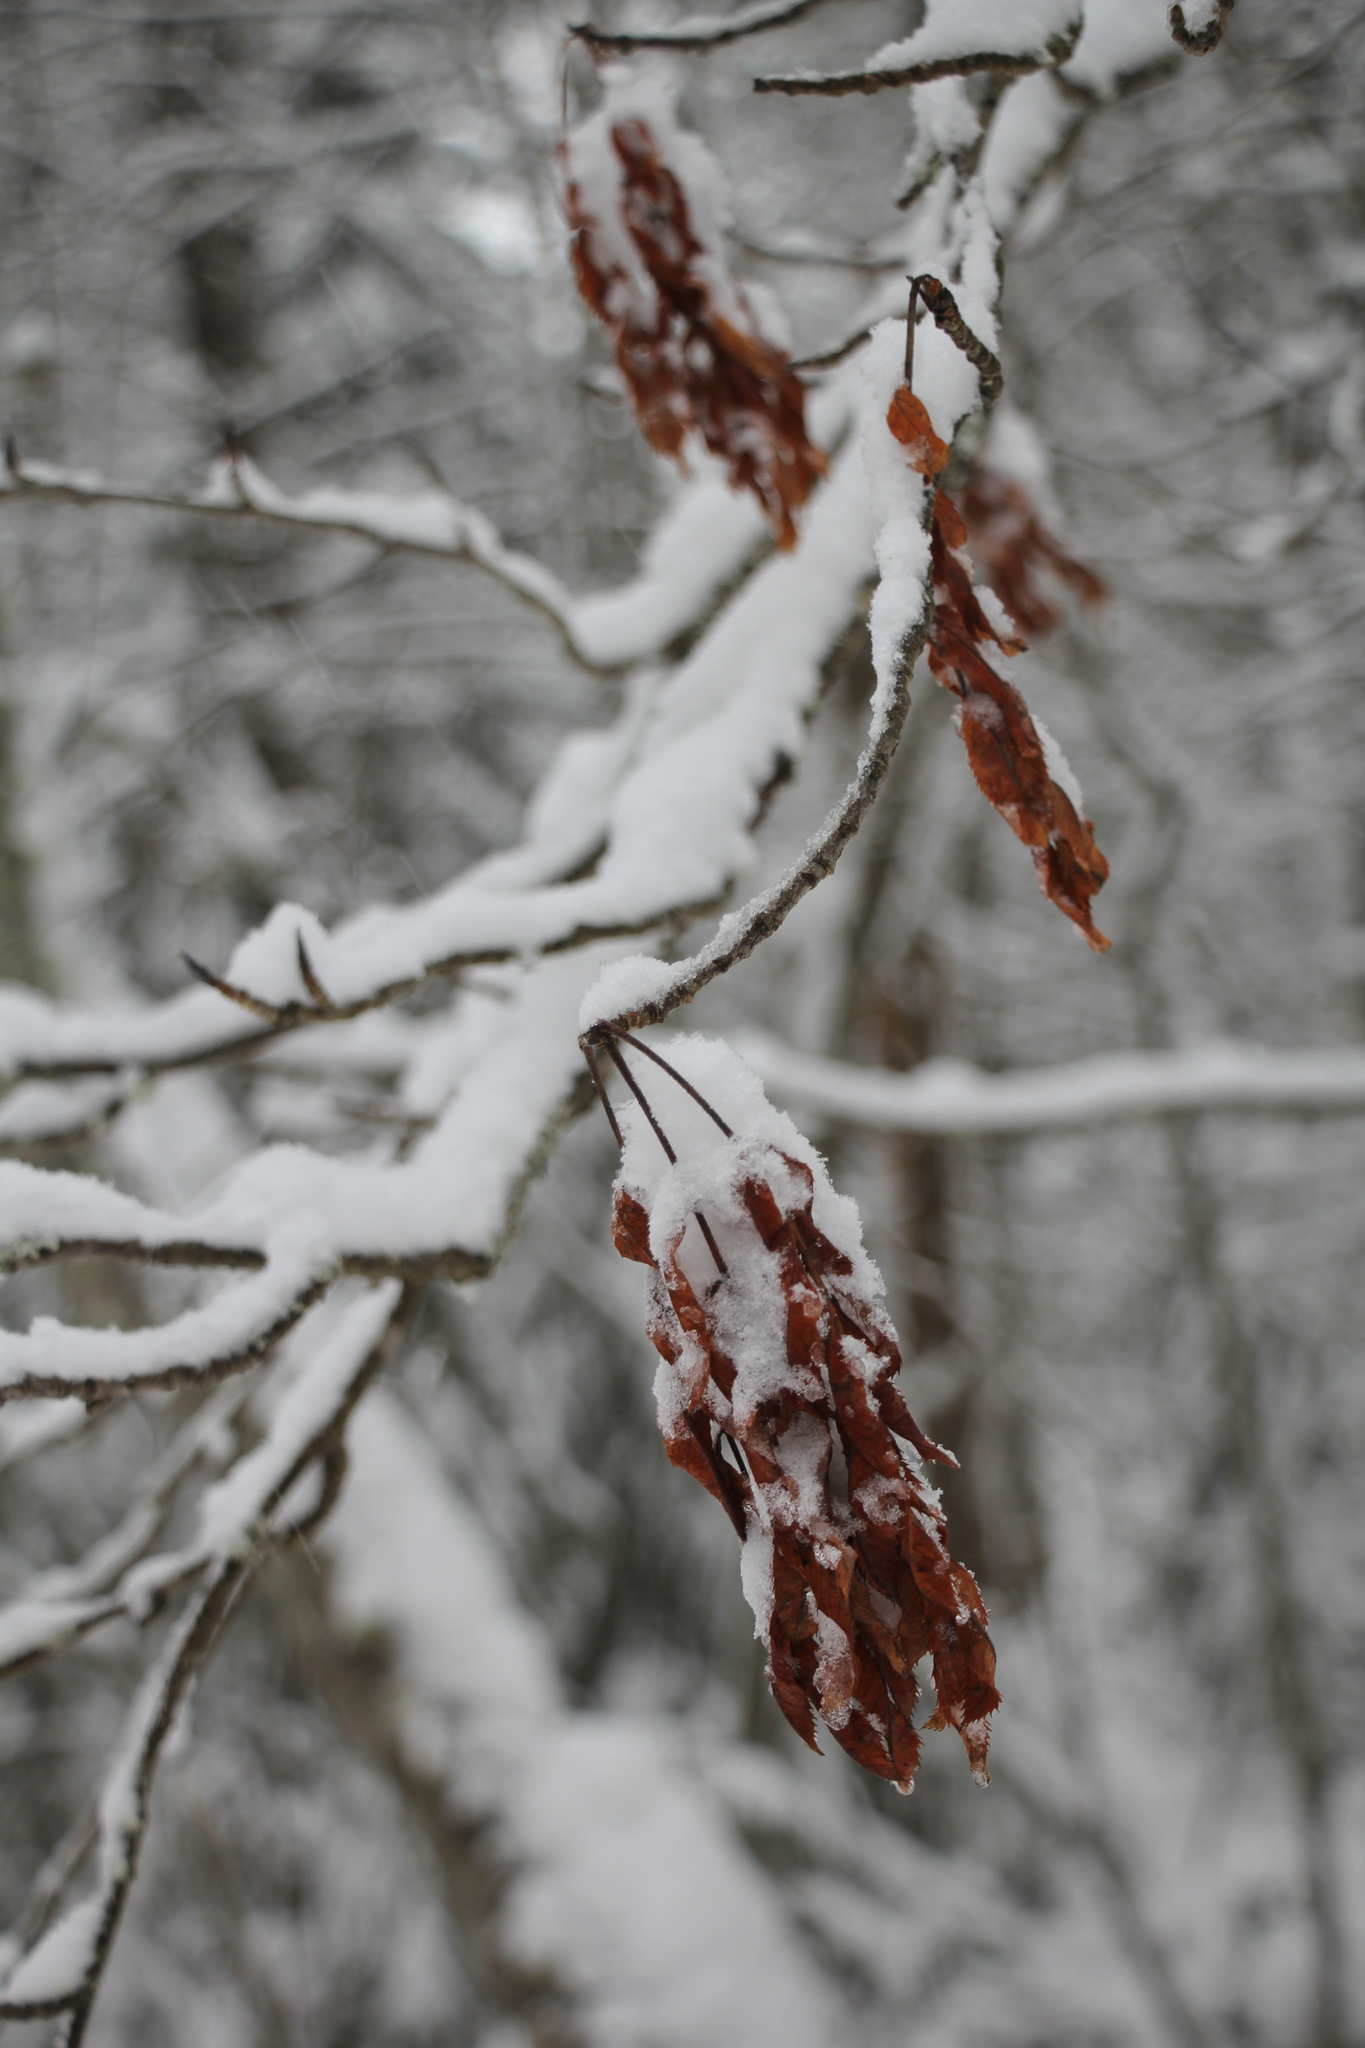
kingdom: Plantae
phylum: Tracheophyta
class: Magnoliopsida
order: Rosales
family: Rosaceae
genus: Sorbus
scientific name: Sorbus aucuparia
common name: Rowan
